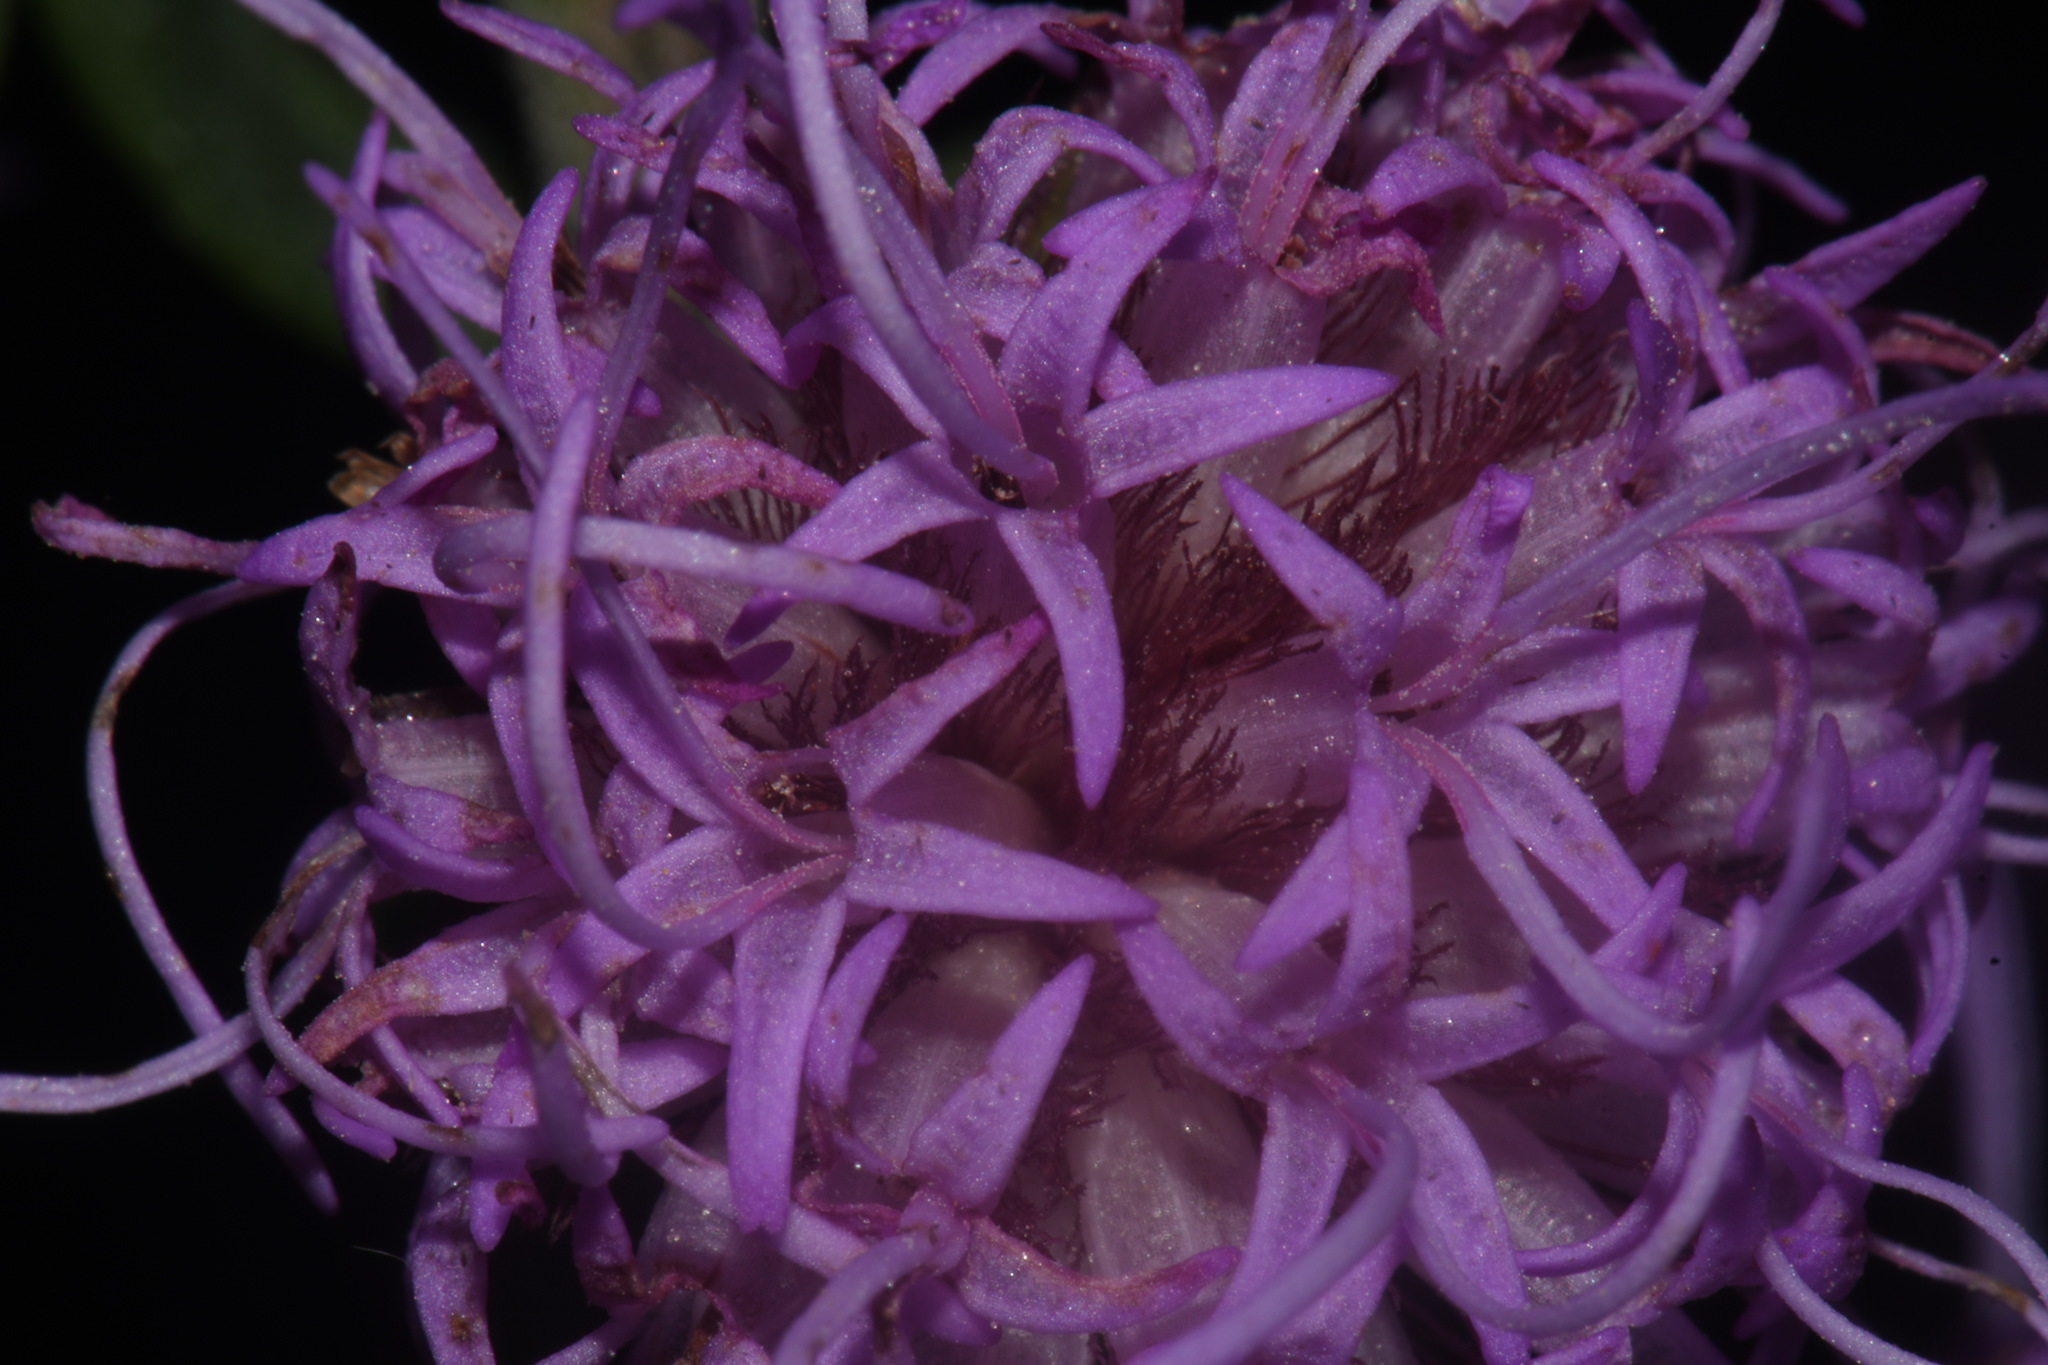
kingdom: Plantae
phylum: Tracheophyta
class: Magnoliopsida
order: Asterales
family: Asteraceae
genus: Liatris
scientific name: Liatris squarrulosa
